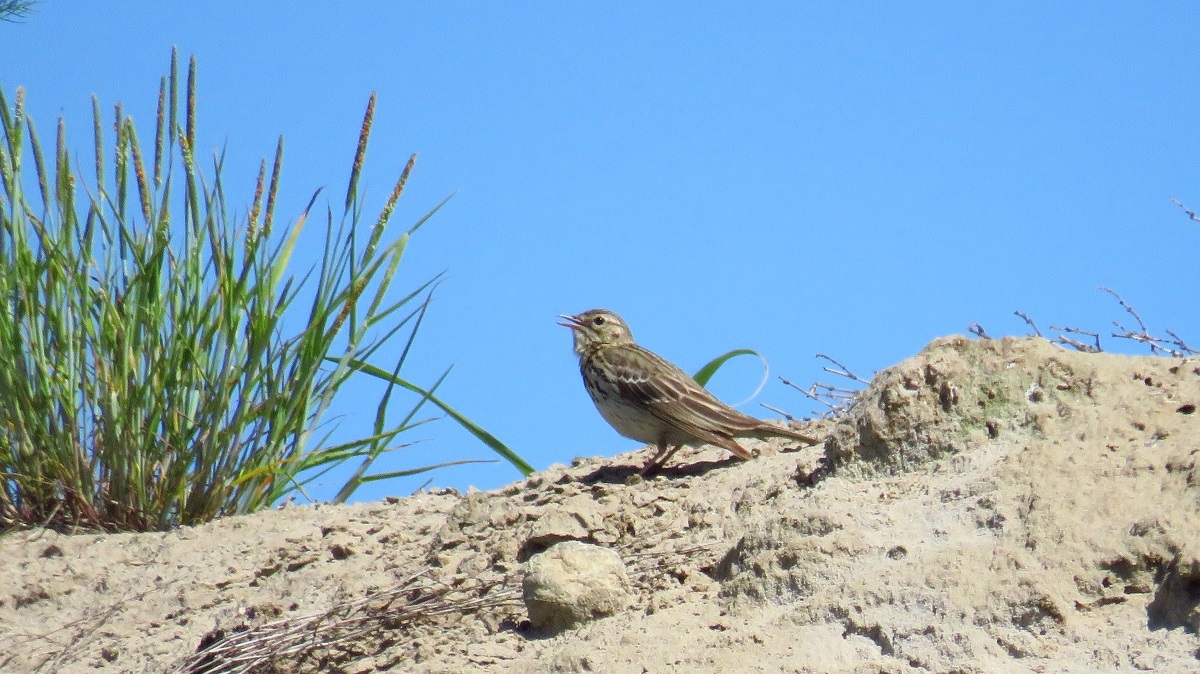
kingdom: Animalia
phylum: Chordata
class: Aves
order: Passeriformes
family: Motacillidae
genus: Anthus
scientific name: Anthus trivialis
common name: Tree pipit
